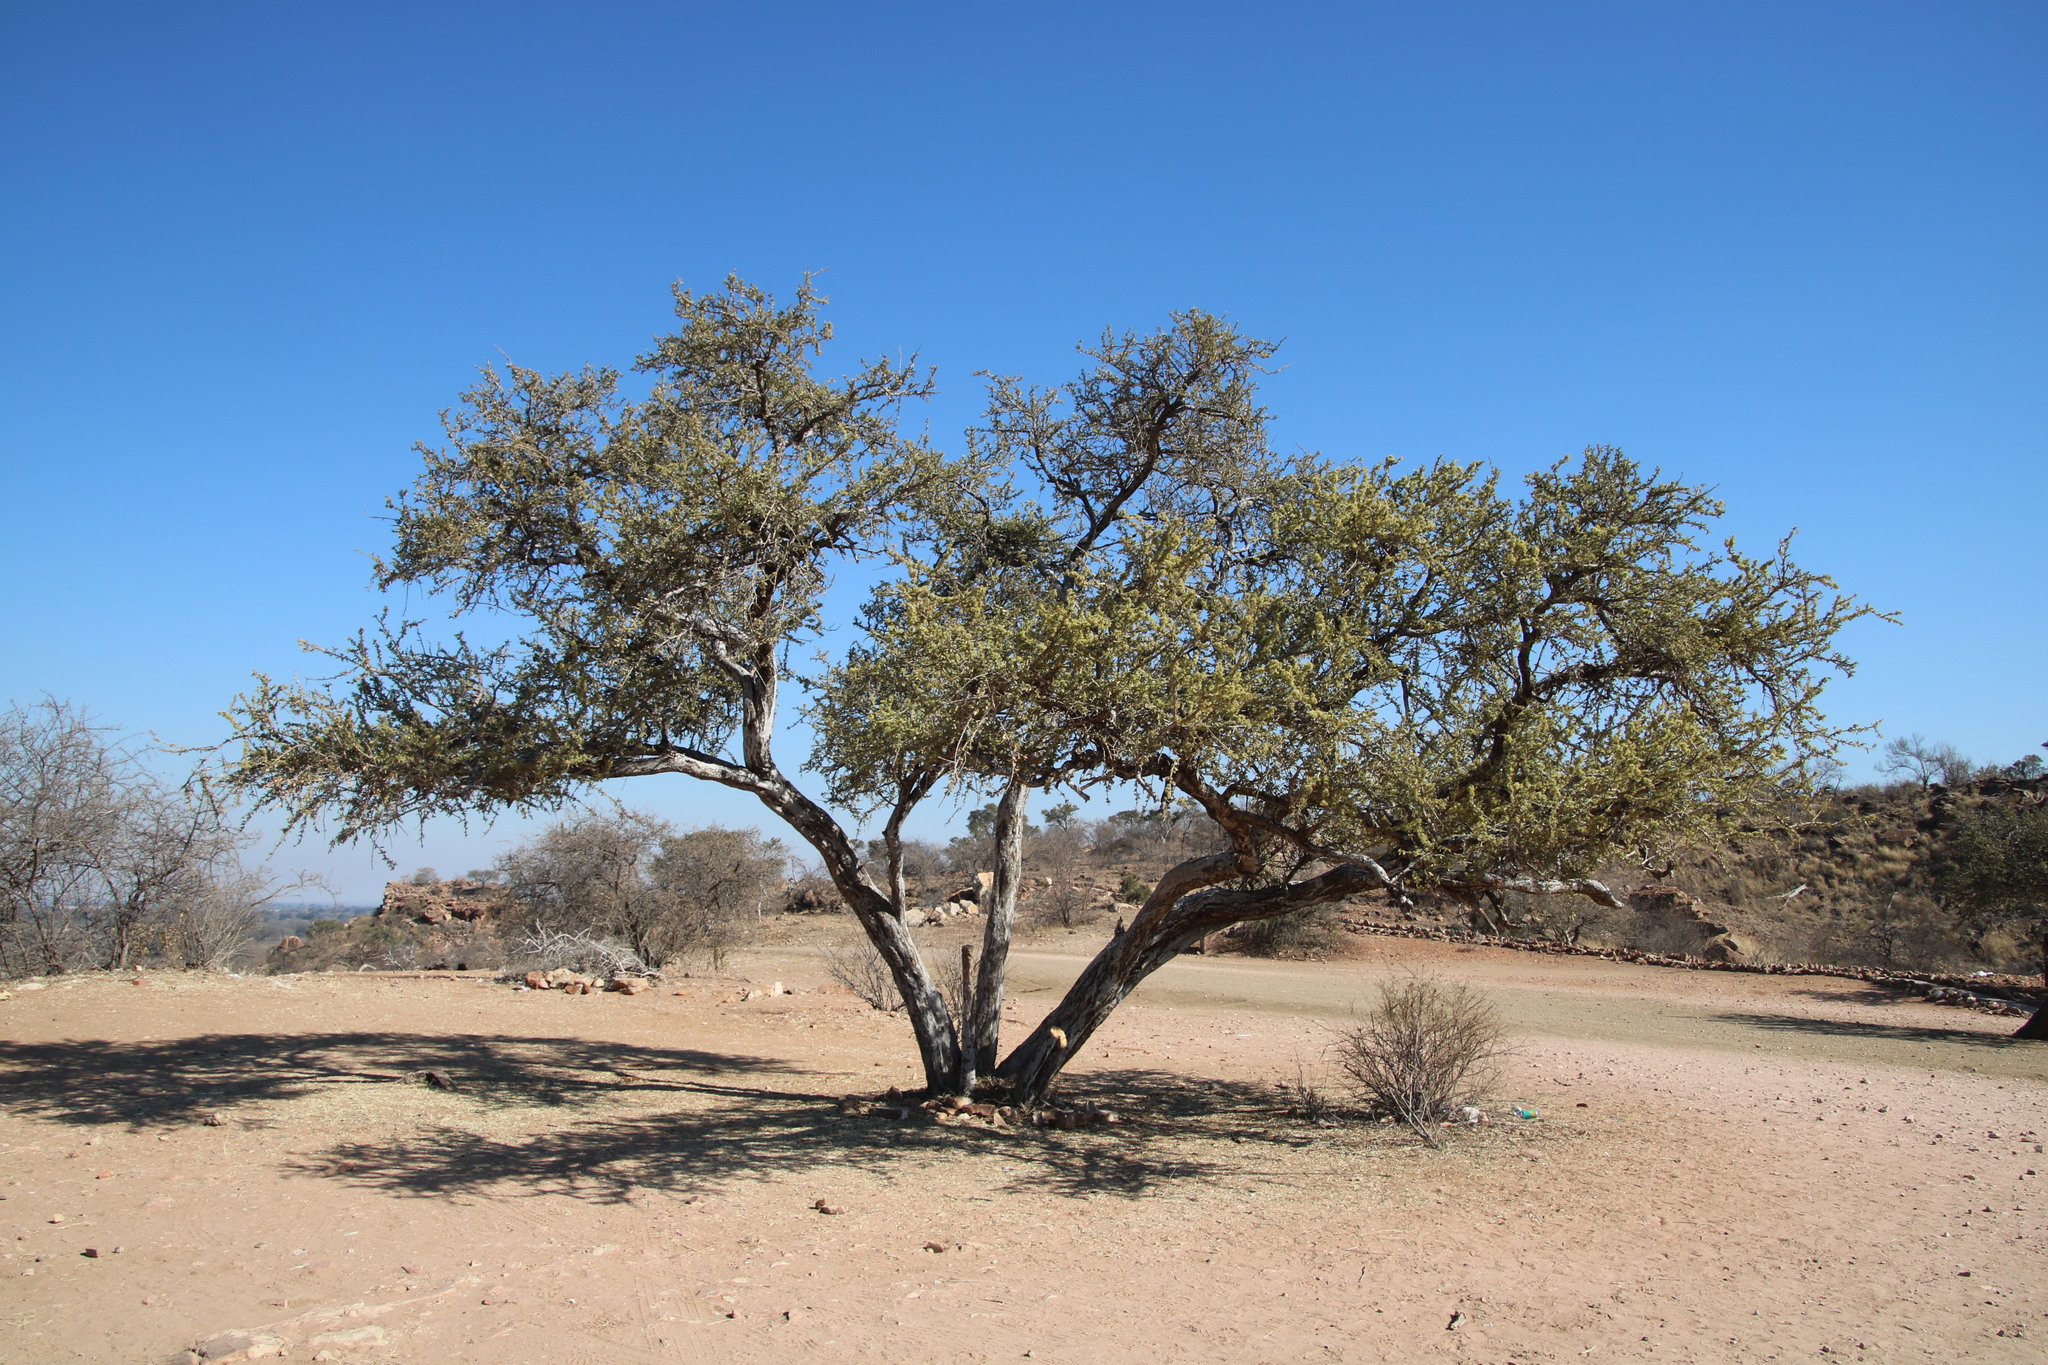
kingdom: Plantae
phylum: Tracheophyta
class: Magnoliopsida
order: Brassicales
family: Capparaceae
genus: Boscia
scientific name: Boscia albitrunca
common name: Caper bush
